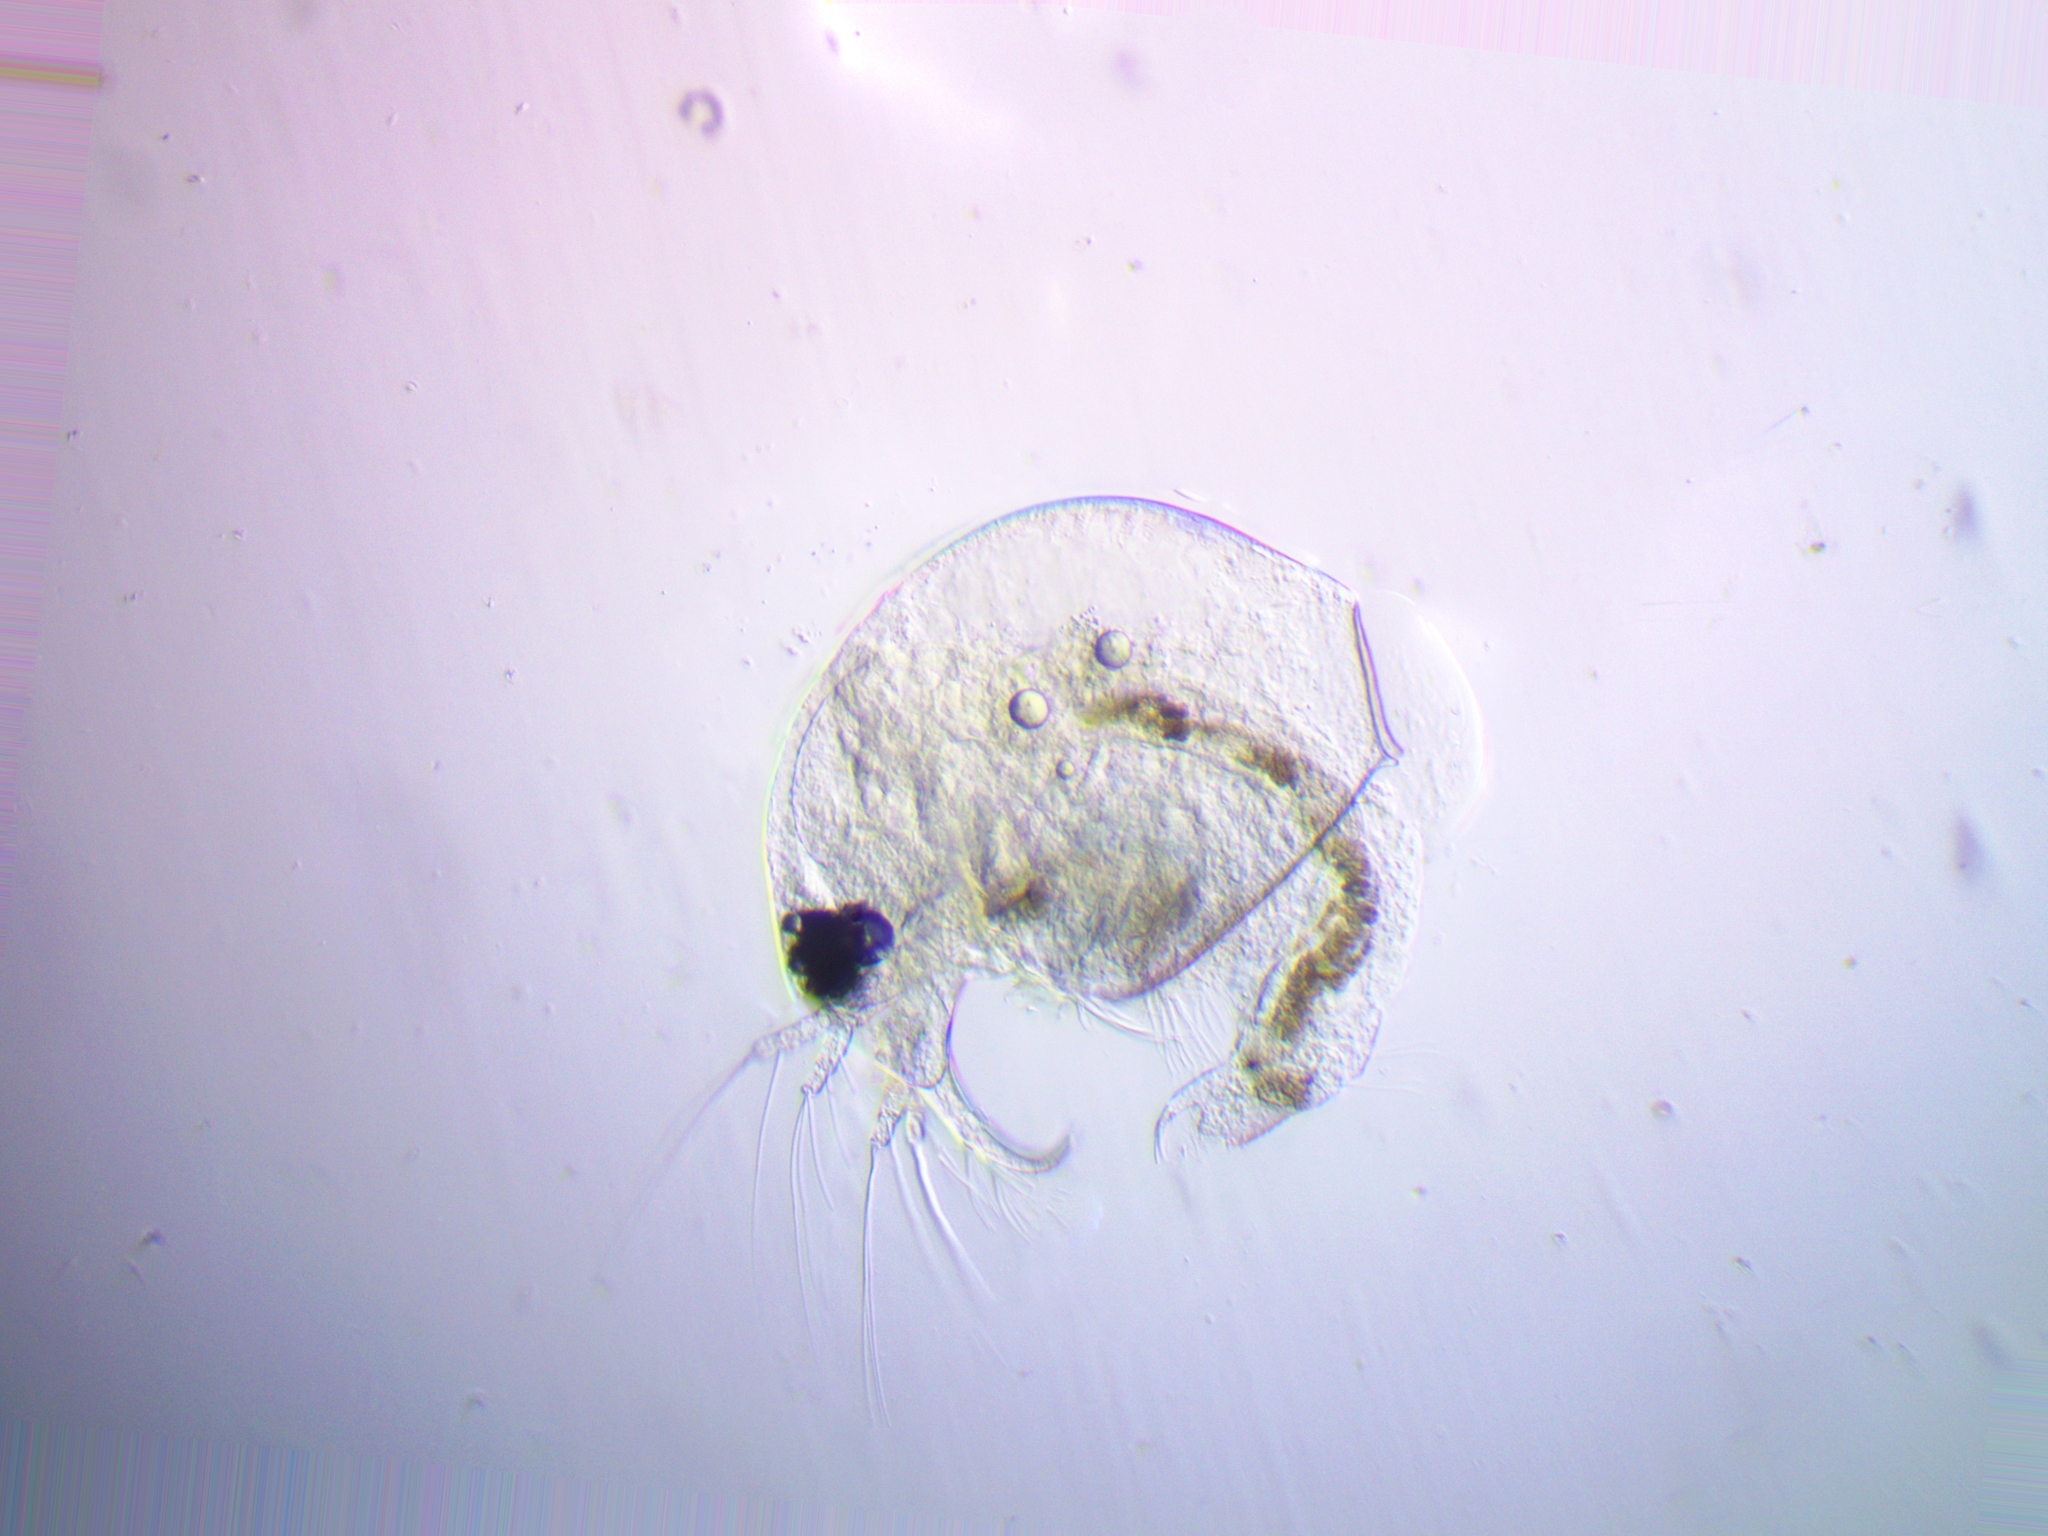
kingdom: Animalia
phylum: Arthropoda
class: Branchiopoda
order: Diplostraca
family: Bosminidae
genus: Bosmina
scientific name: Bosmina longirostris
